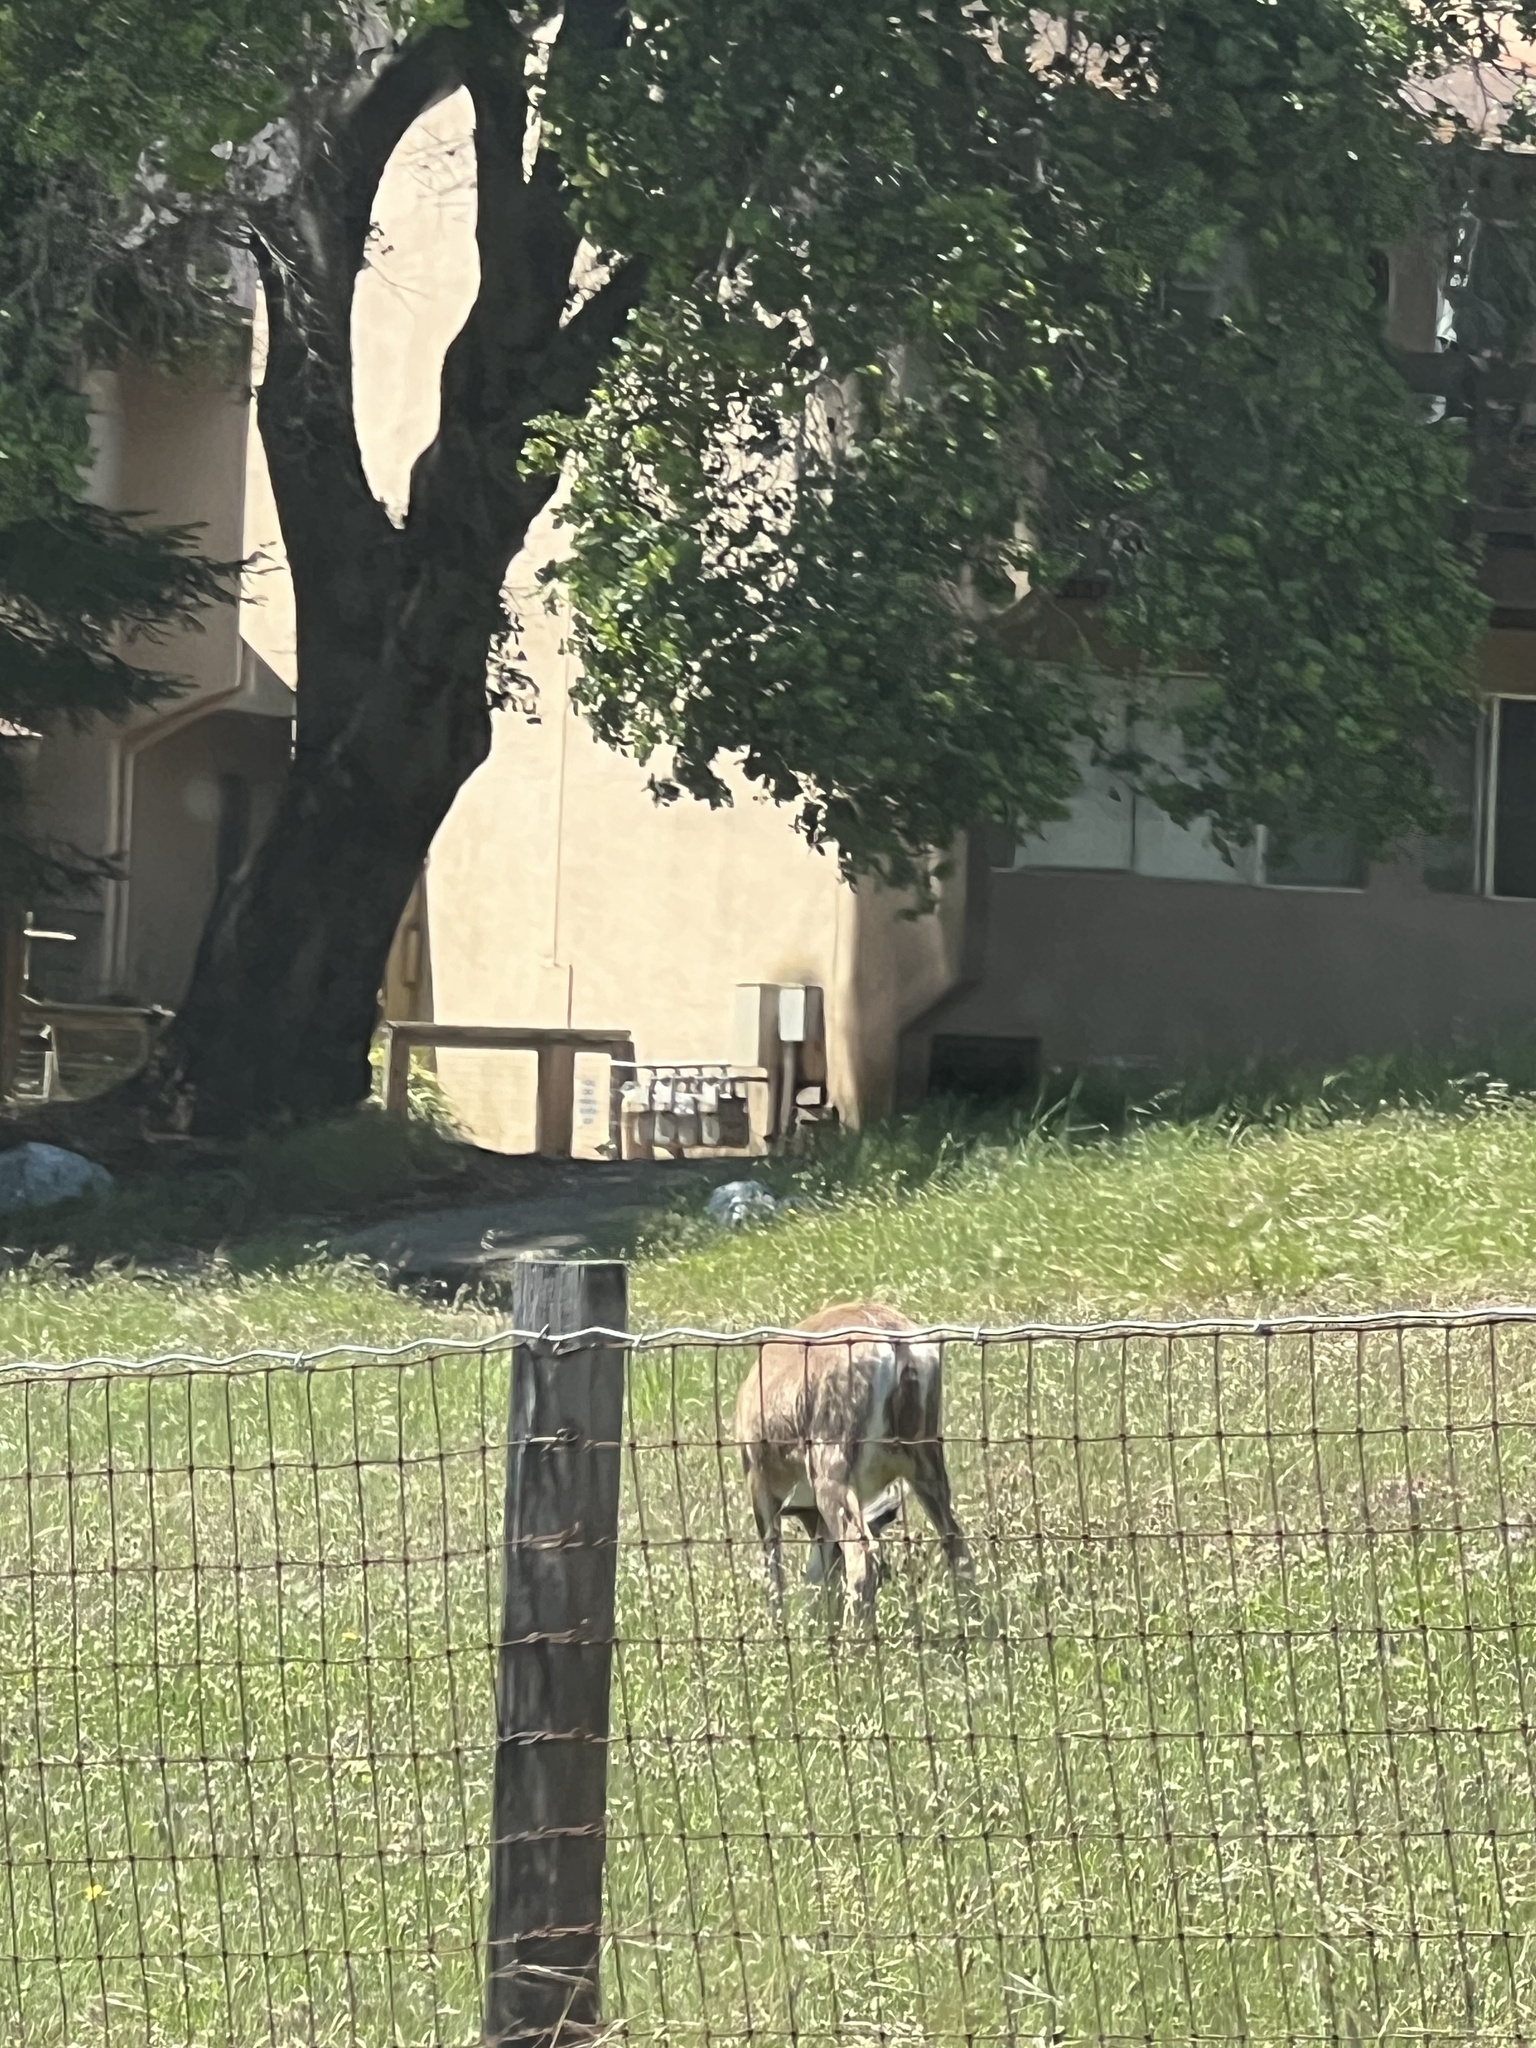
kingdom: Animalia
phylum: Chordata
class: Mammalia
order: Artiodactyla
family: Cervidae
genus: Odocoileus
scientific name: Odocoileus hemionus
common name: Mule deer
